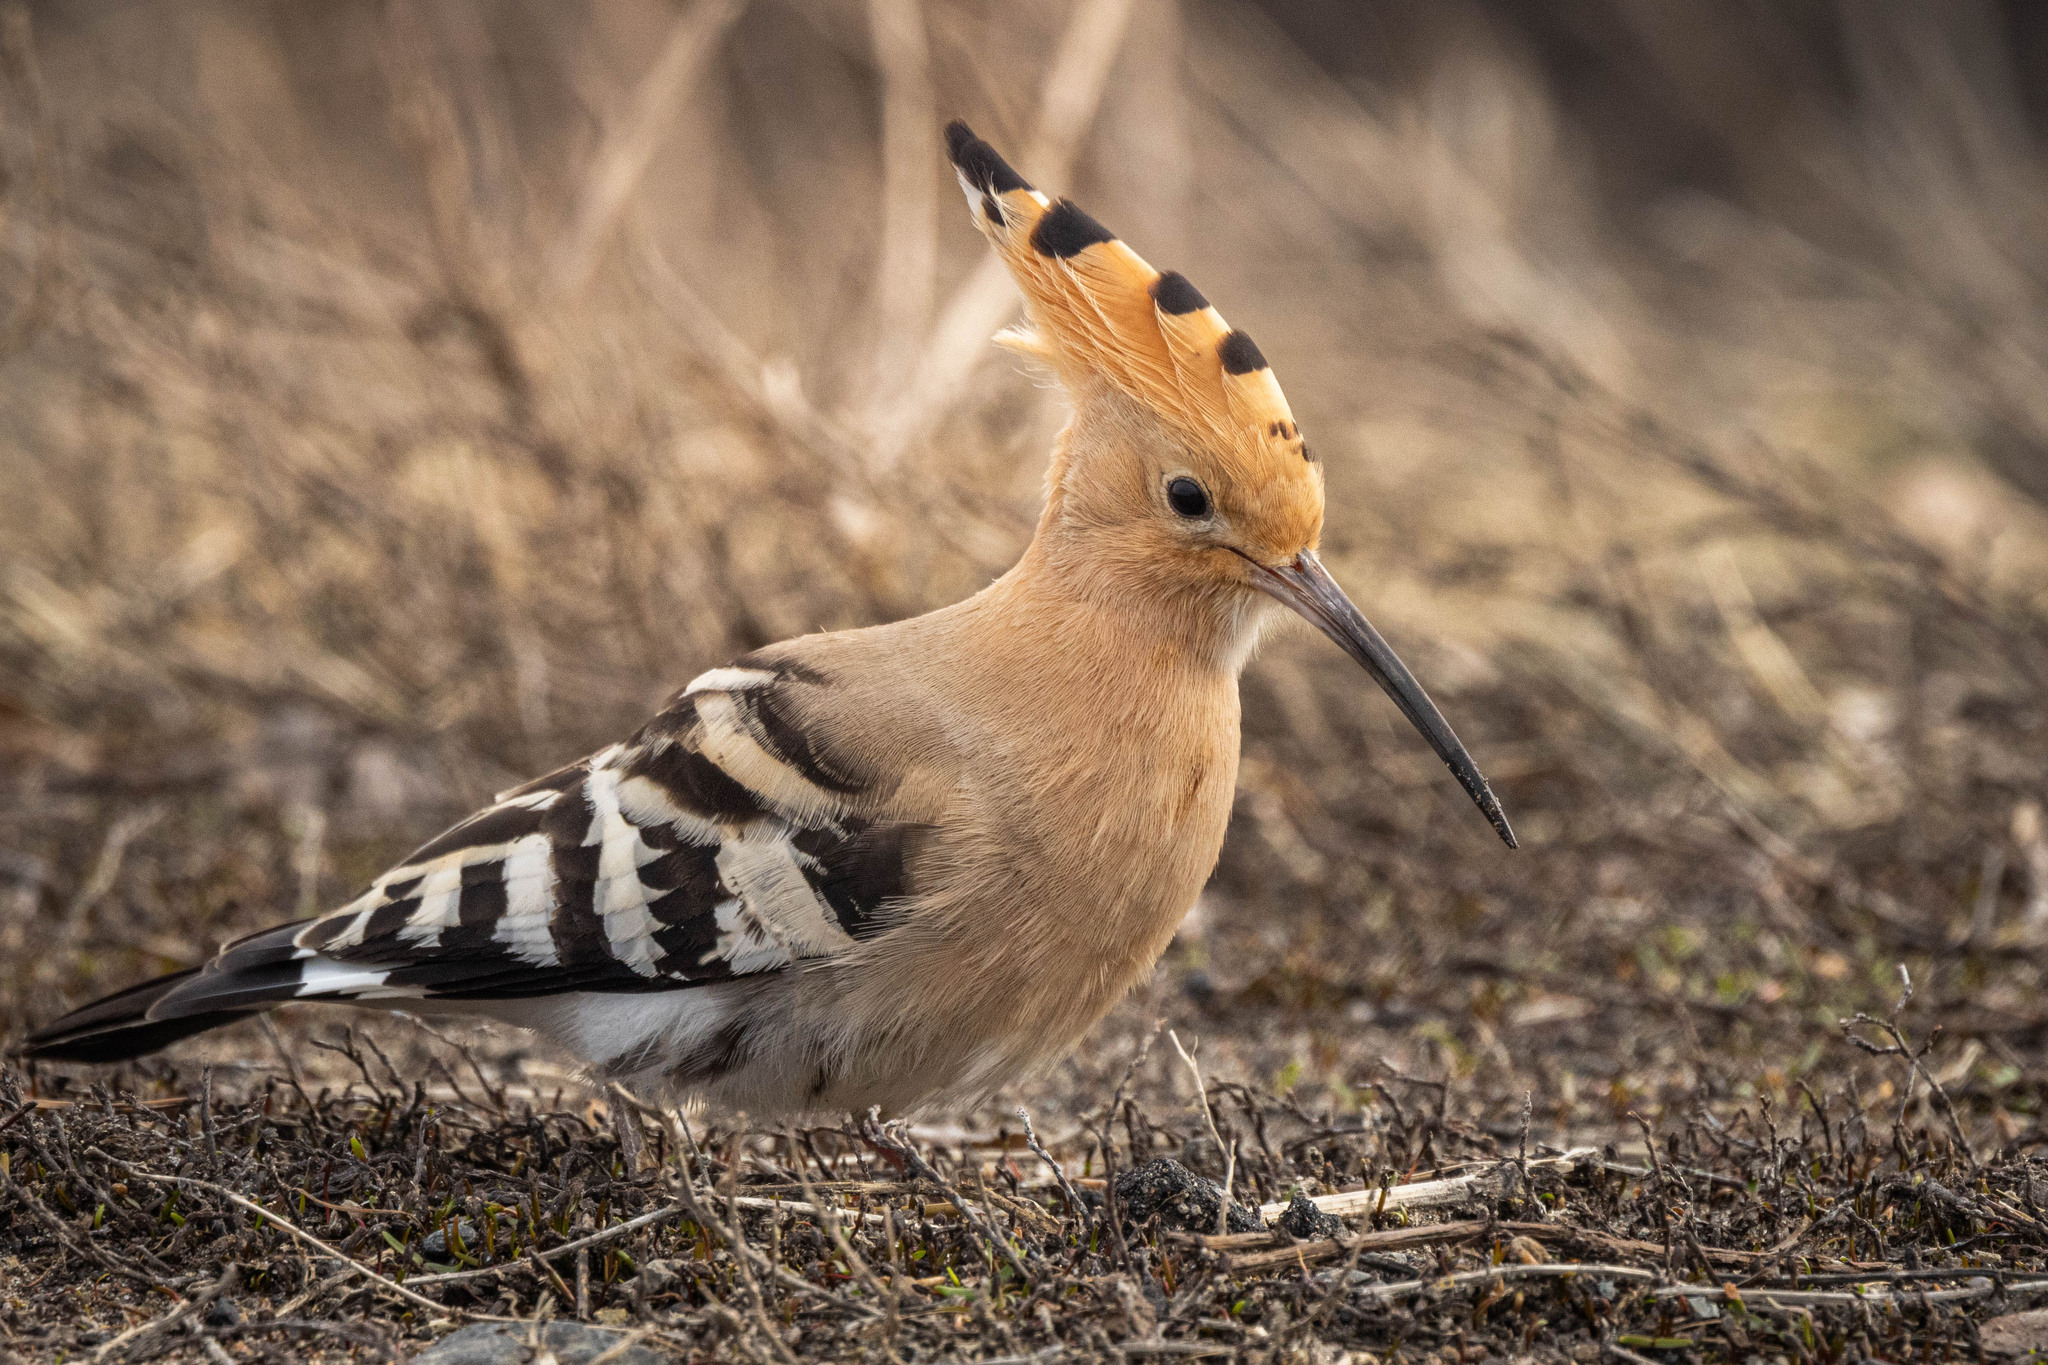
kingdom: Animalia
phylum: Chordata
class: Aves
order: Bucerotiformes
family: Upupidae
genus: Upupa
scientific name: Upupa epops
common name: Eurasian hoopoe
